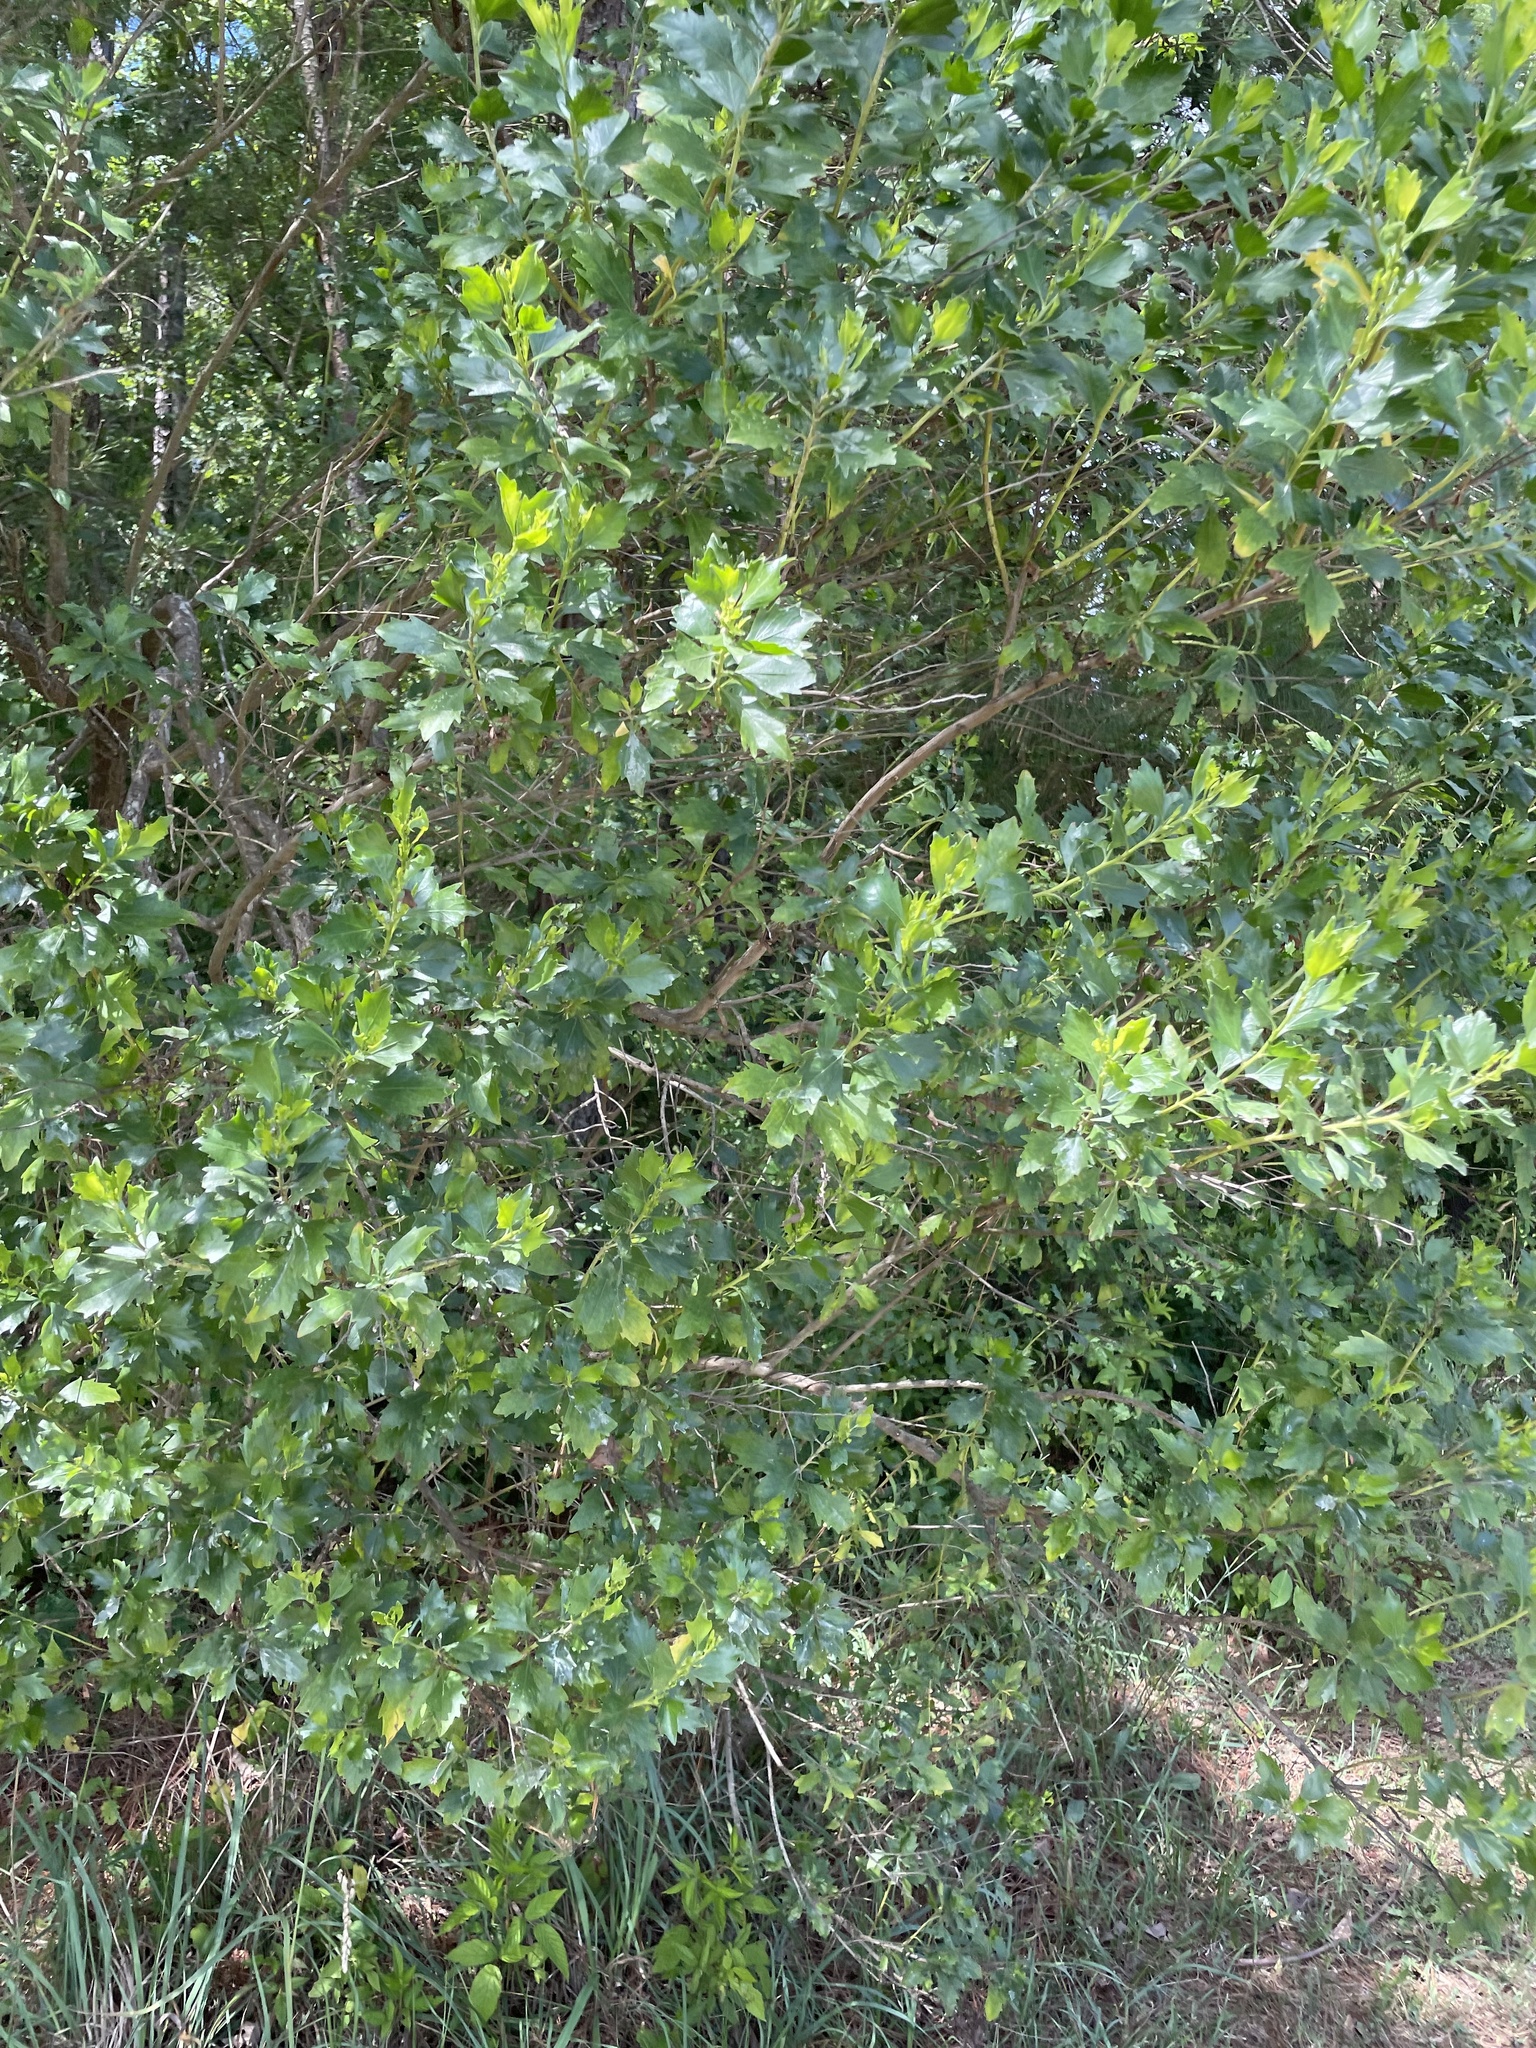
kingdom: Plantae
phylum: Tracheophyta
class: Magnoliopsida
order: Asterales
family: Asteraceae
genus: Baccharis
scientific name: Baccharis halimifolia
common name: Eastern baccharis
